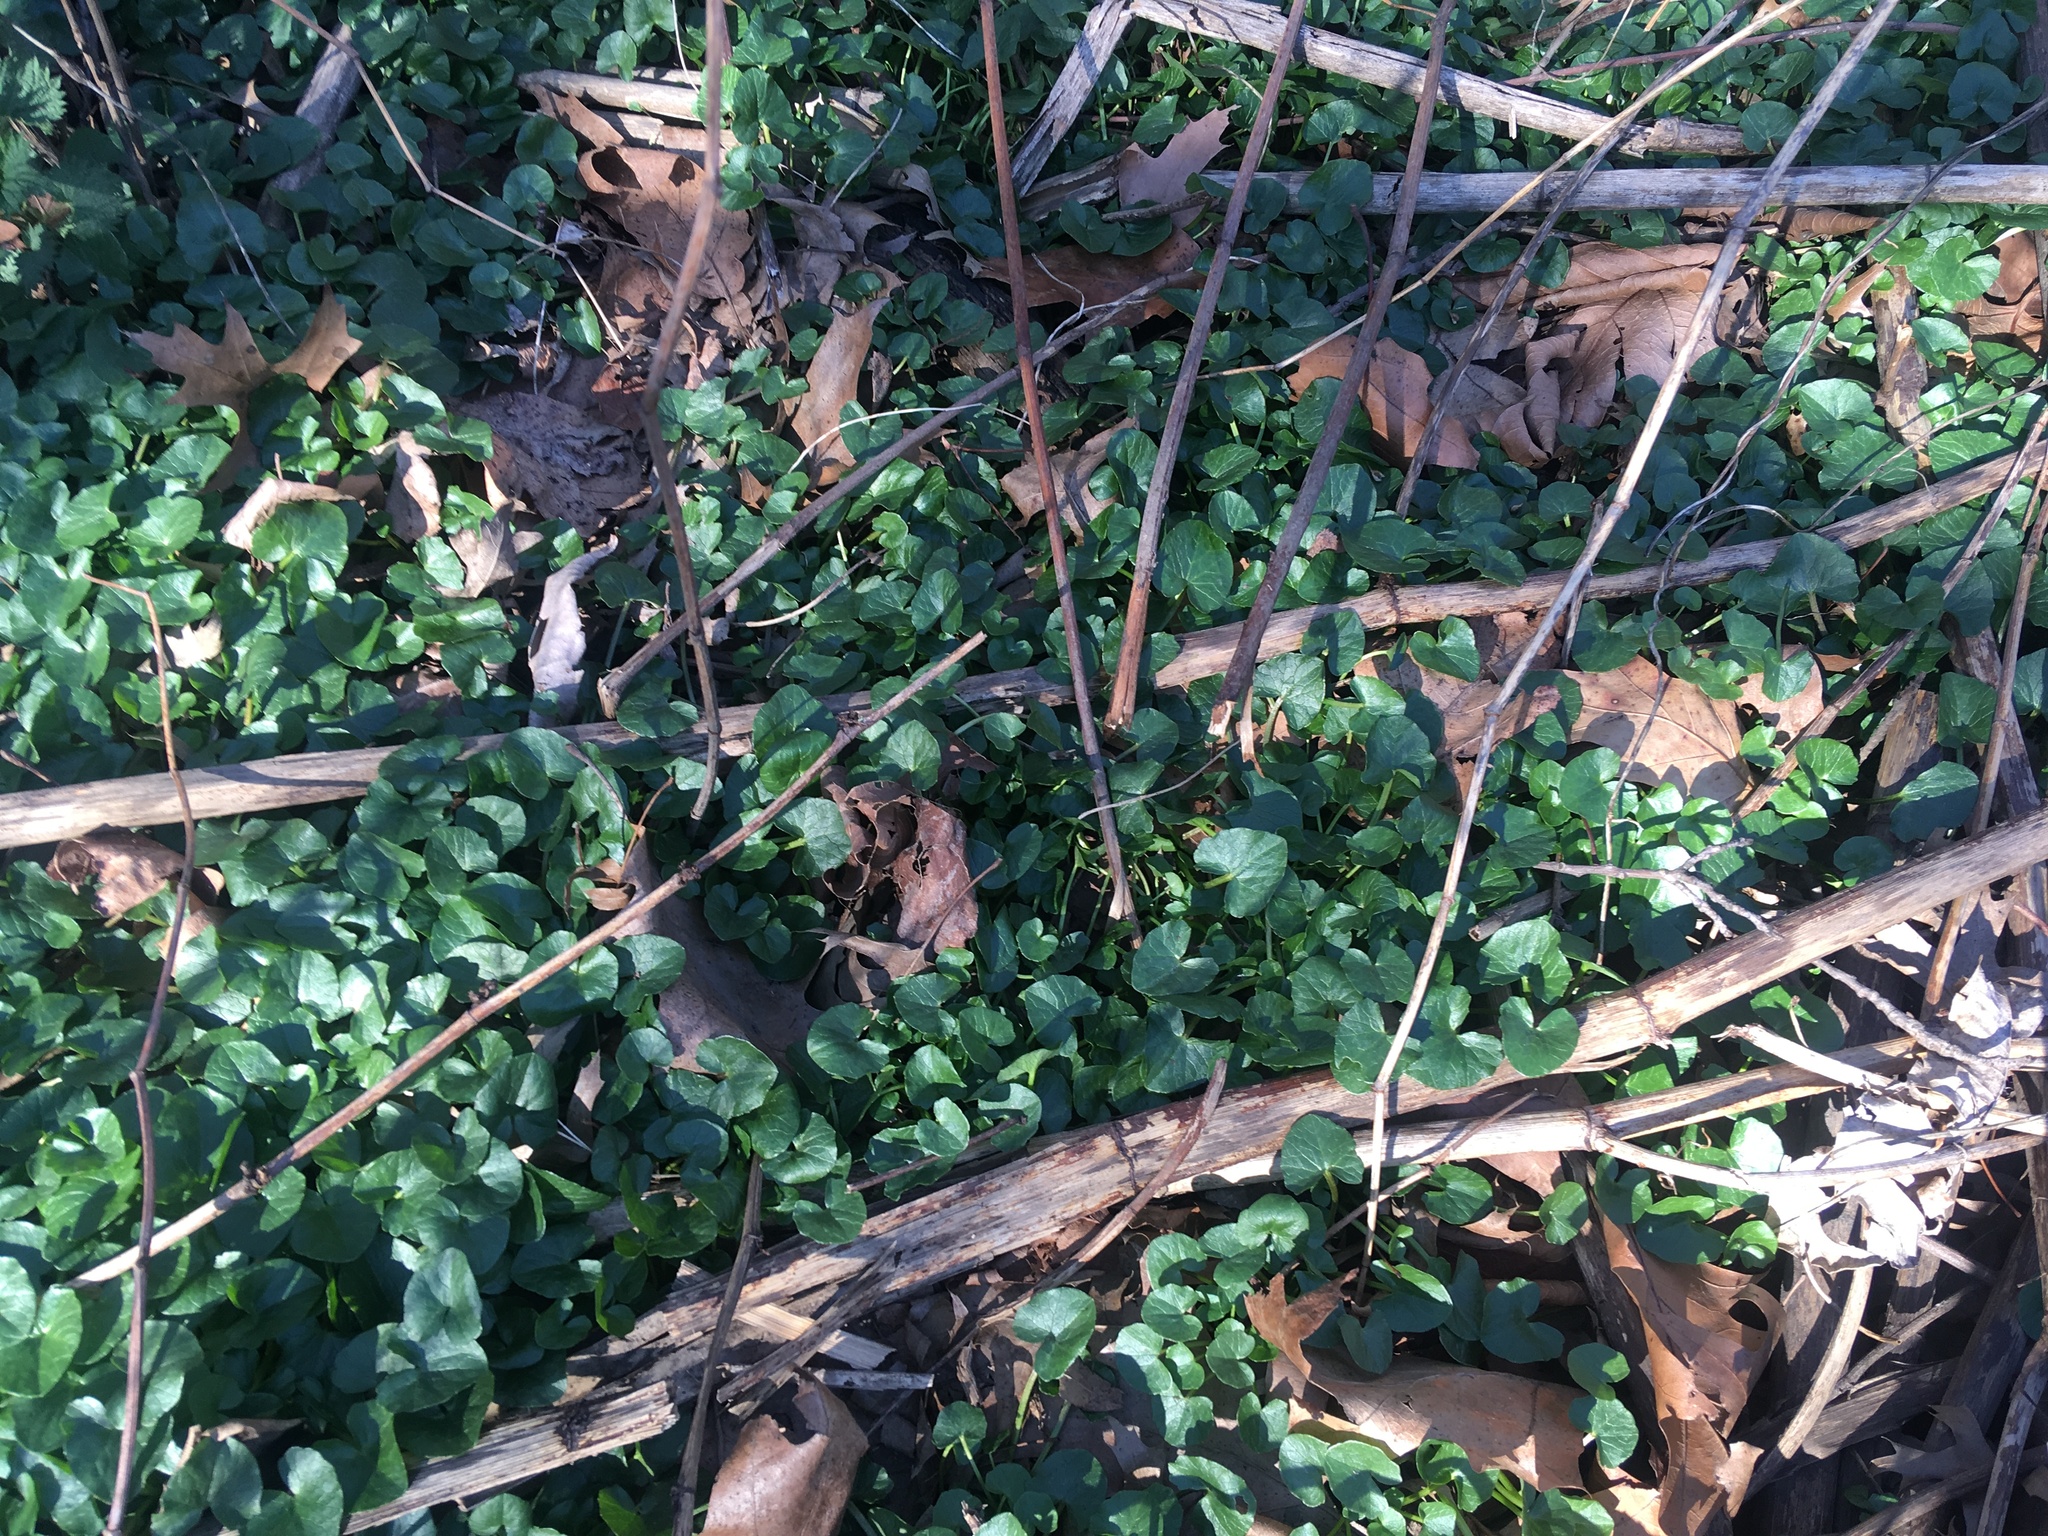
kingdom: Plantae
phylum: Tracheophyta
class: Magnoliopsida
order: Ranunculales
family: Ranunculaceae
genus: Ficaria
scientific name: Ficaria verna
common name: Lesser celandine
